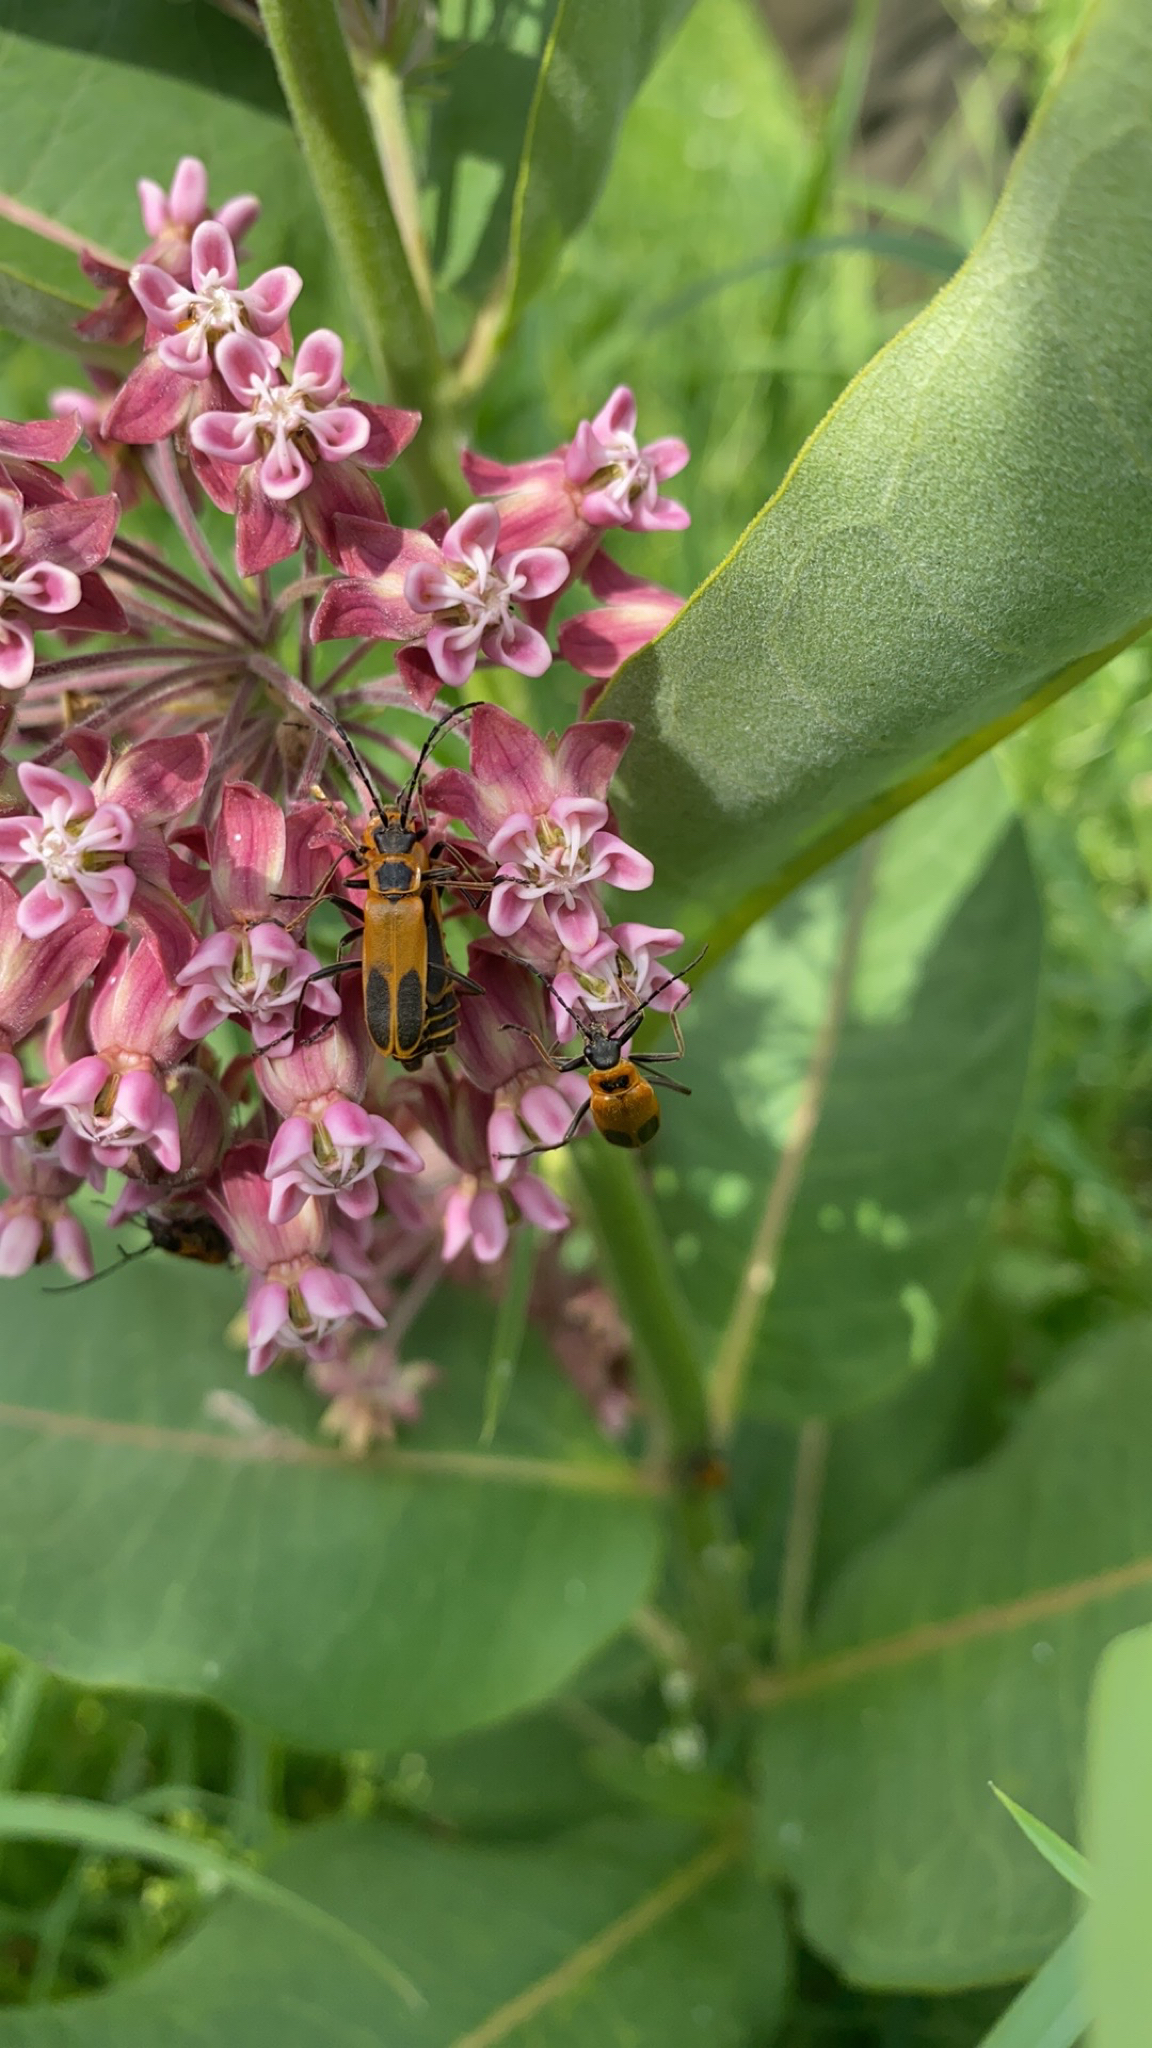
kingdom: Animalia
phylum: Arthropoda
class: Insecta
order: Coleoptera
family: Cantharidae
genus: Chauliognathus
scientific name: Chauliognathus pensylvanicus
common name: Goldenrod soldier beetle
